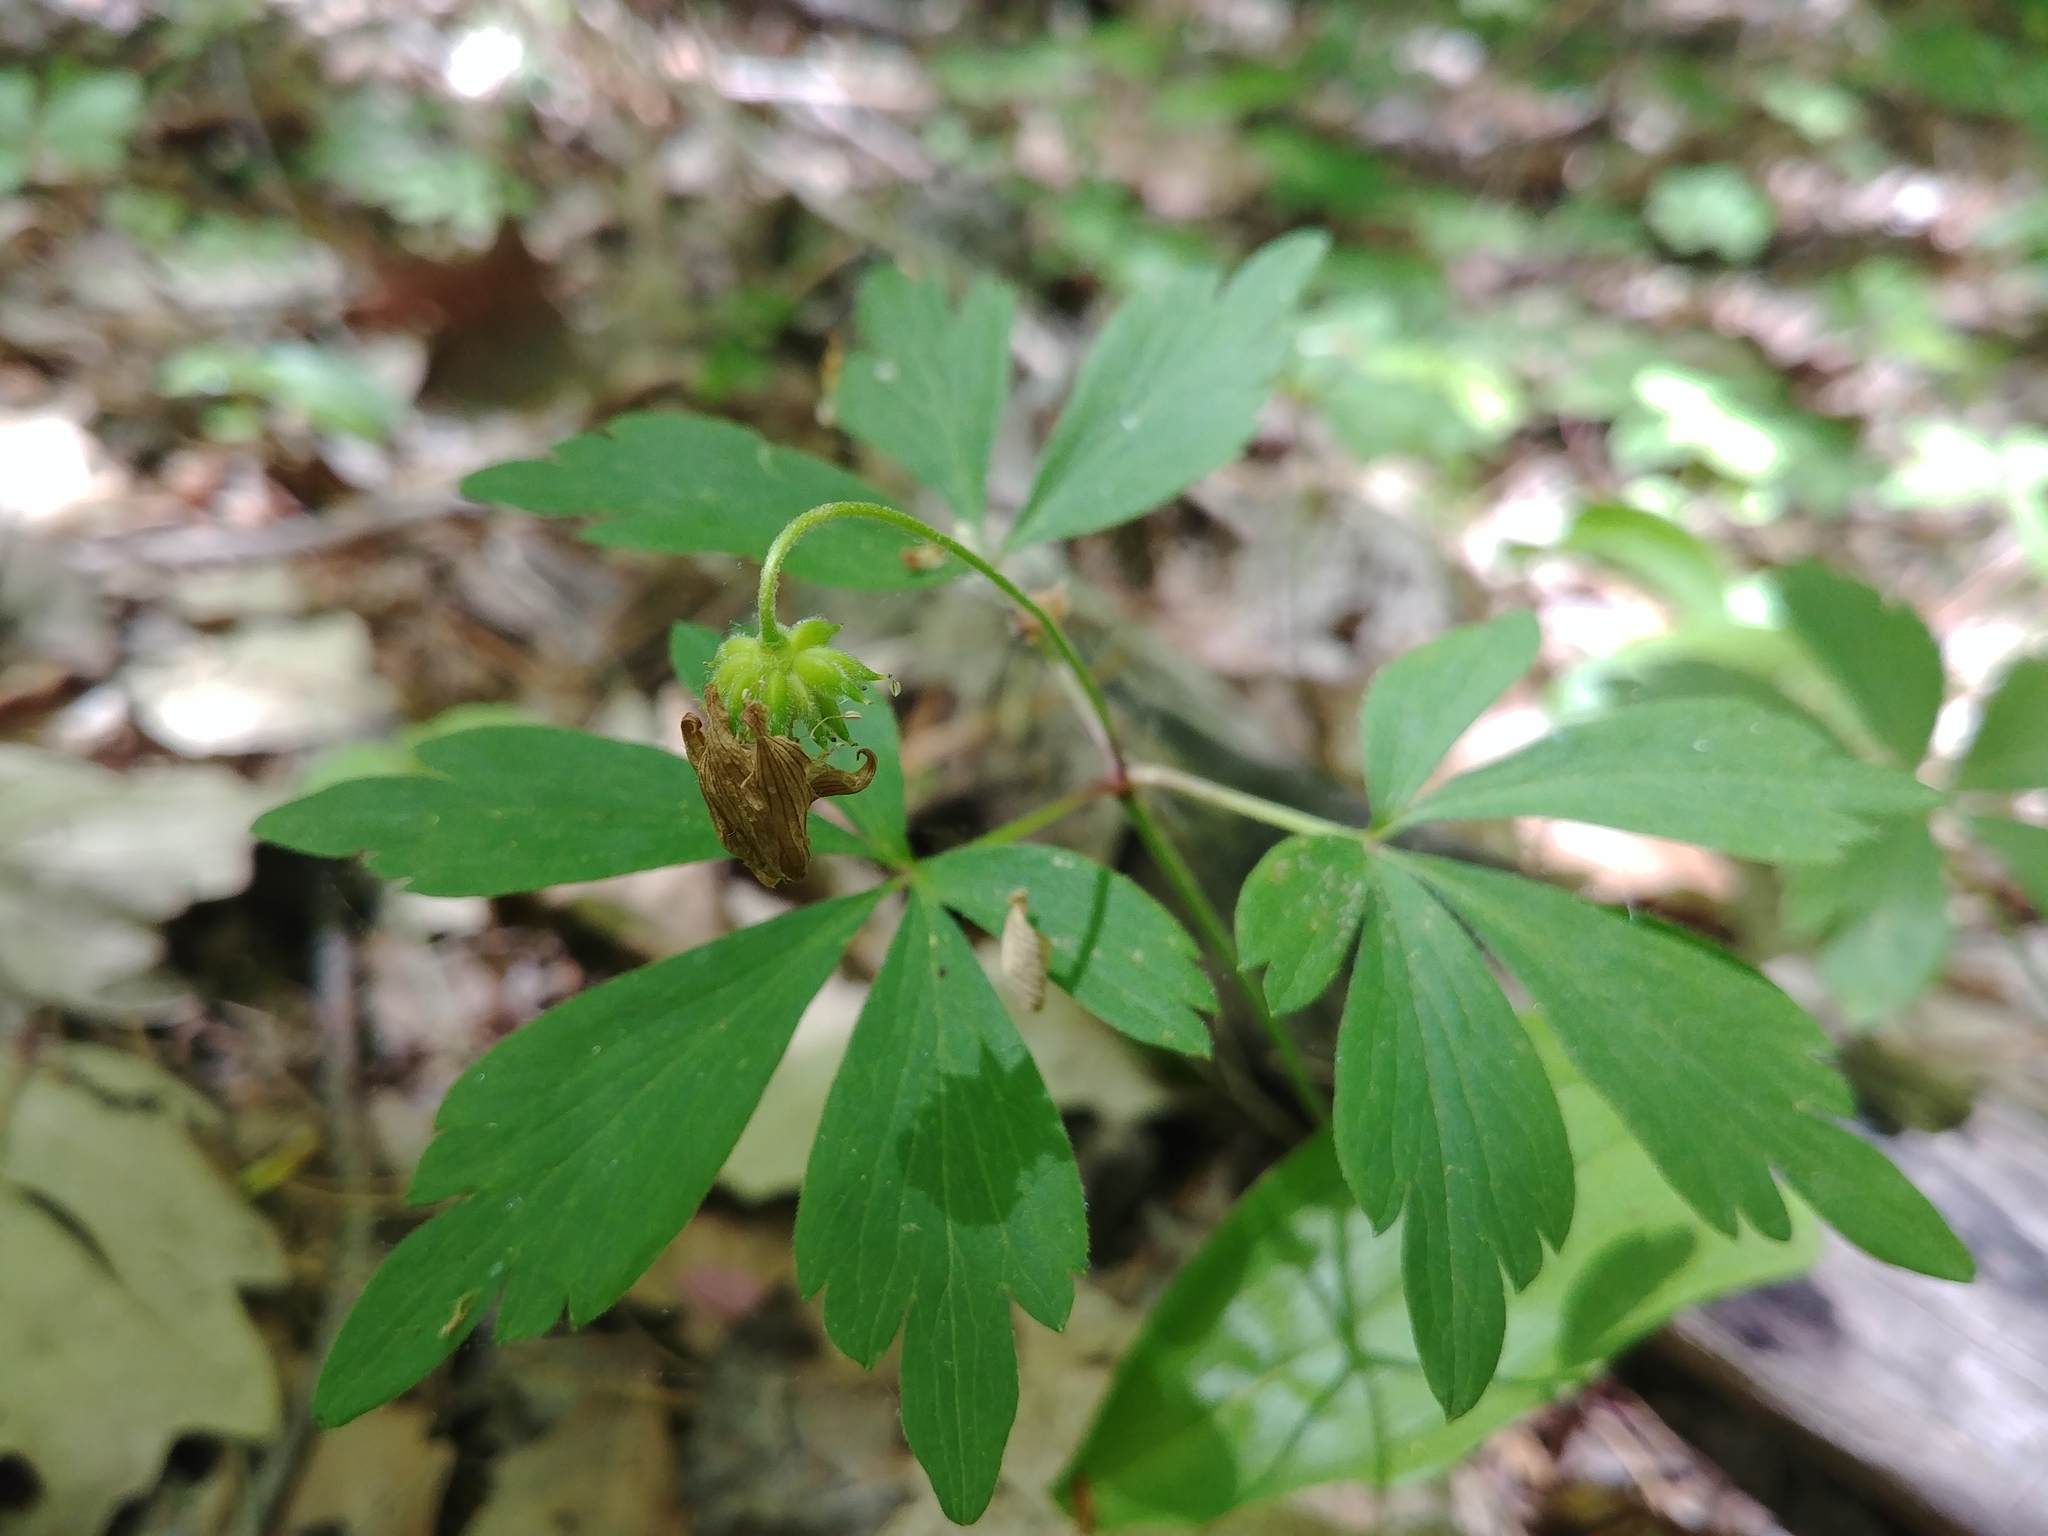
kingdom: Plantae
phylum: Tracheophyta
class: Magnoliopsida
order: Ranunculales
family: Ranunculaceae
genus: Anemone
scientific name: Anemone quinquefolia
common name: Wood anemone
